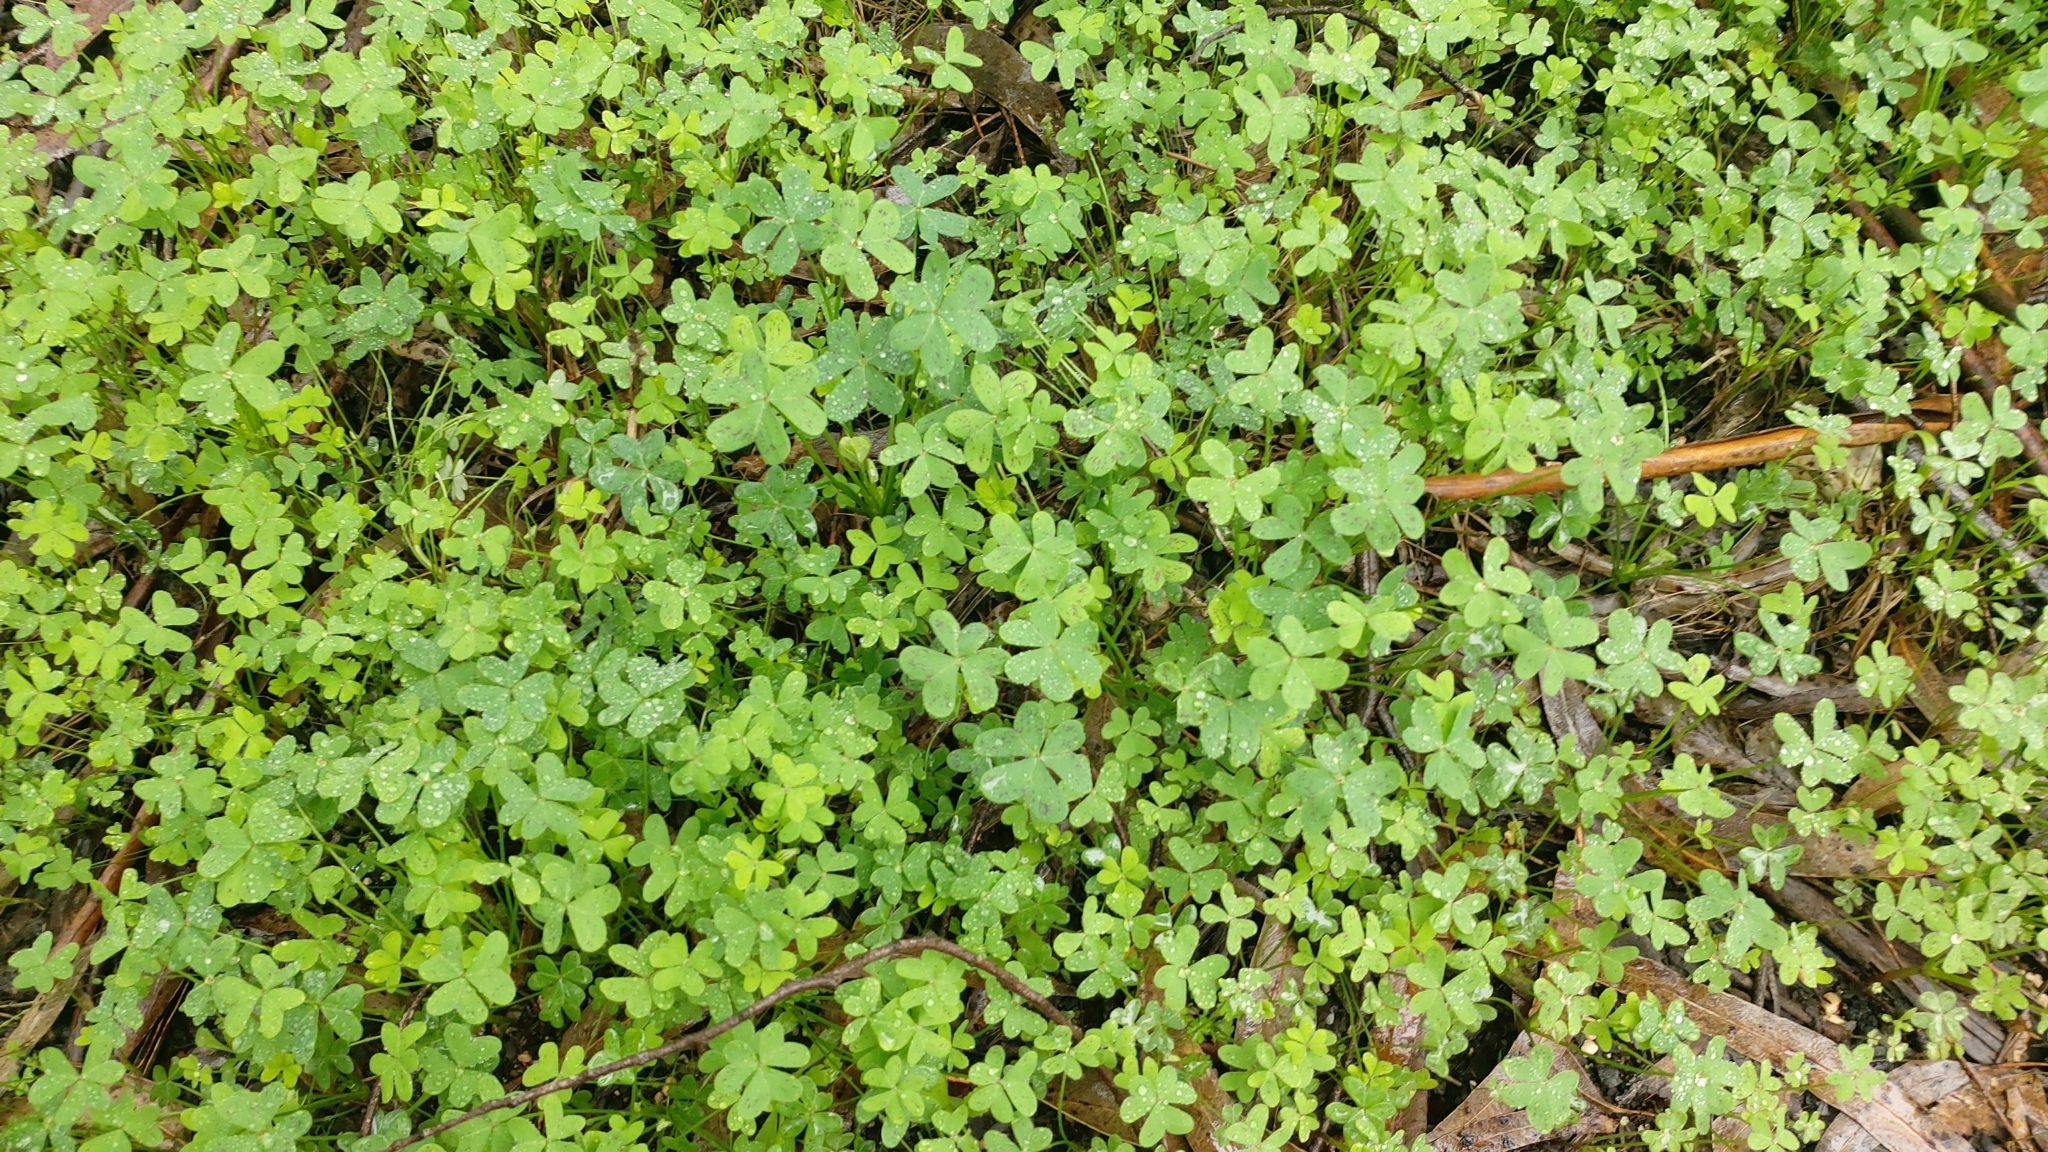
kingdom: Plantae
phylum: Tracheophyta
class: Magnoliopsida
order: Oxalidales
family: Oxalidaceae
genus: Oxalis
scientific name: Oxalis pes-caprae
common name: Bermuda-buttercup
